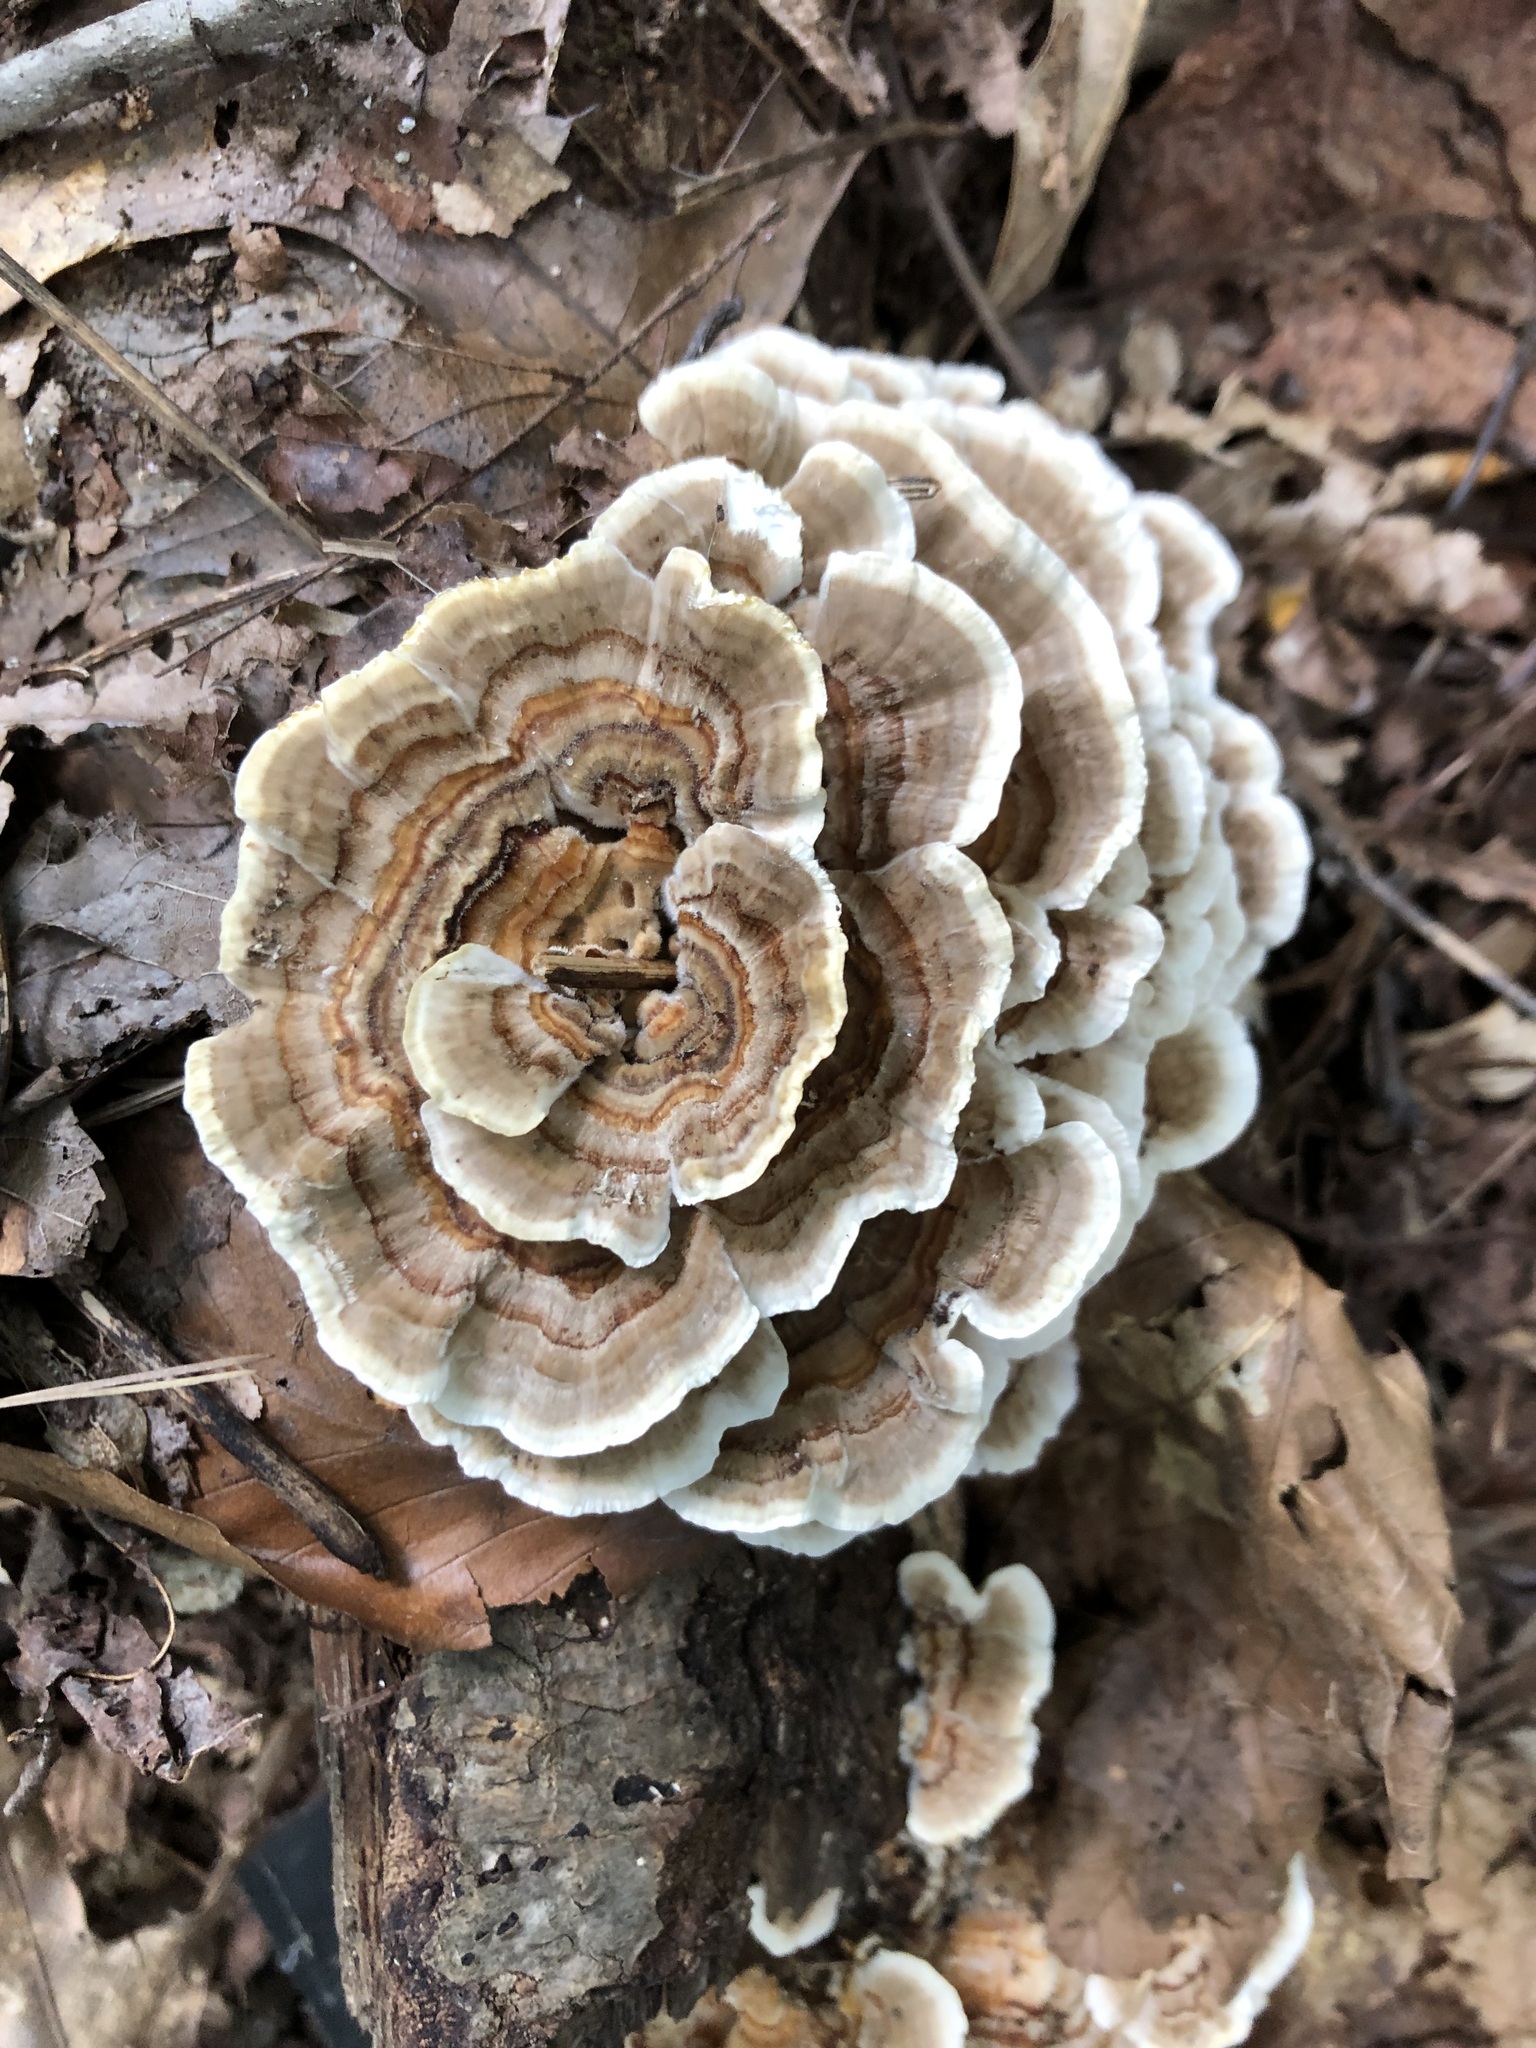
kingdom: Fungi
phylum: Basidiomycota
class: Agaricomycetes
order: Polyporales
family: Polyporaceae
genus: Trametes
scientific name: Trametes versicolor
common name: Turkeytail
